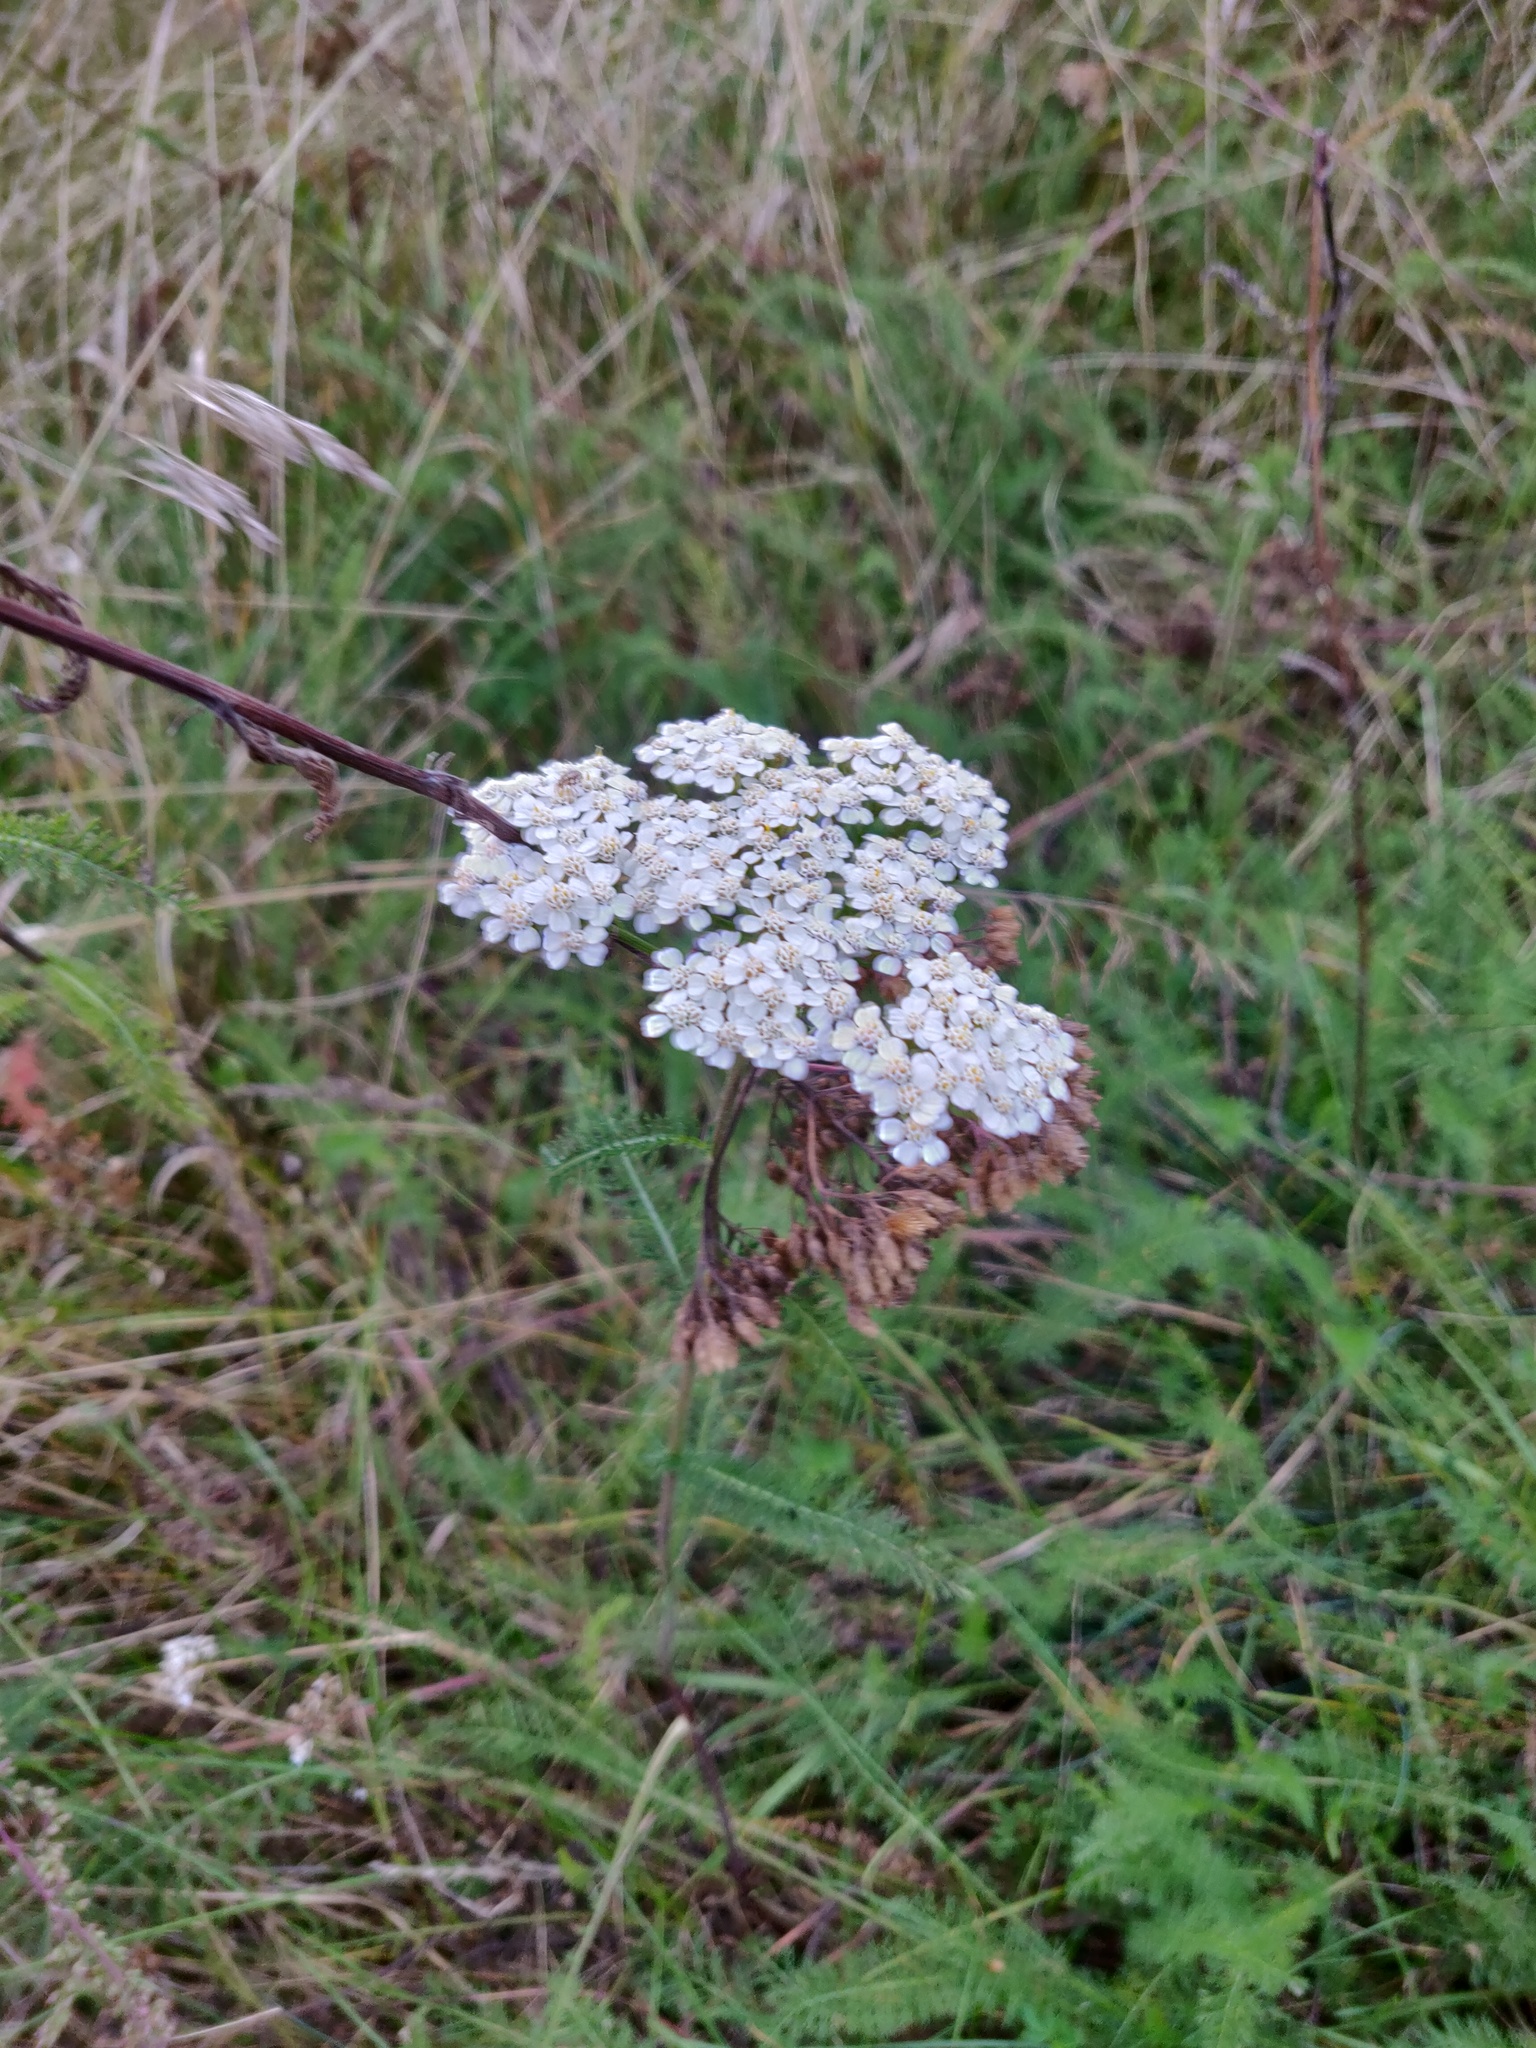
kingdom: Plantae
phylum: Tracheophyta
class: Magnoliopsida
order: Asterales
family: Asteraceae
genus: Achillea
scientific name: Achillea millefolium
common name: Yarrow
